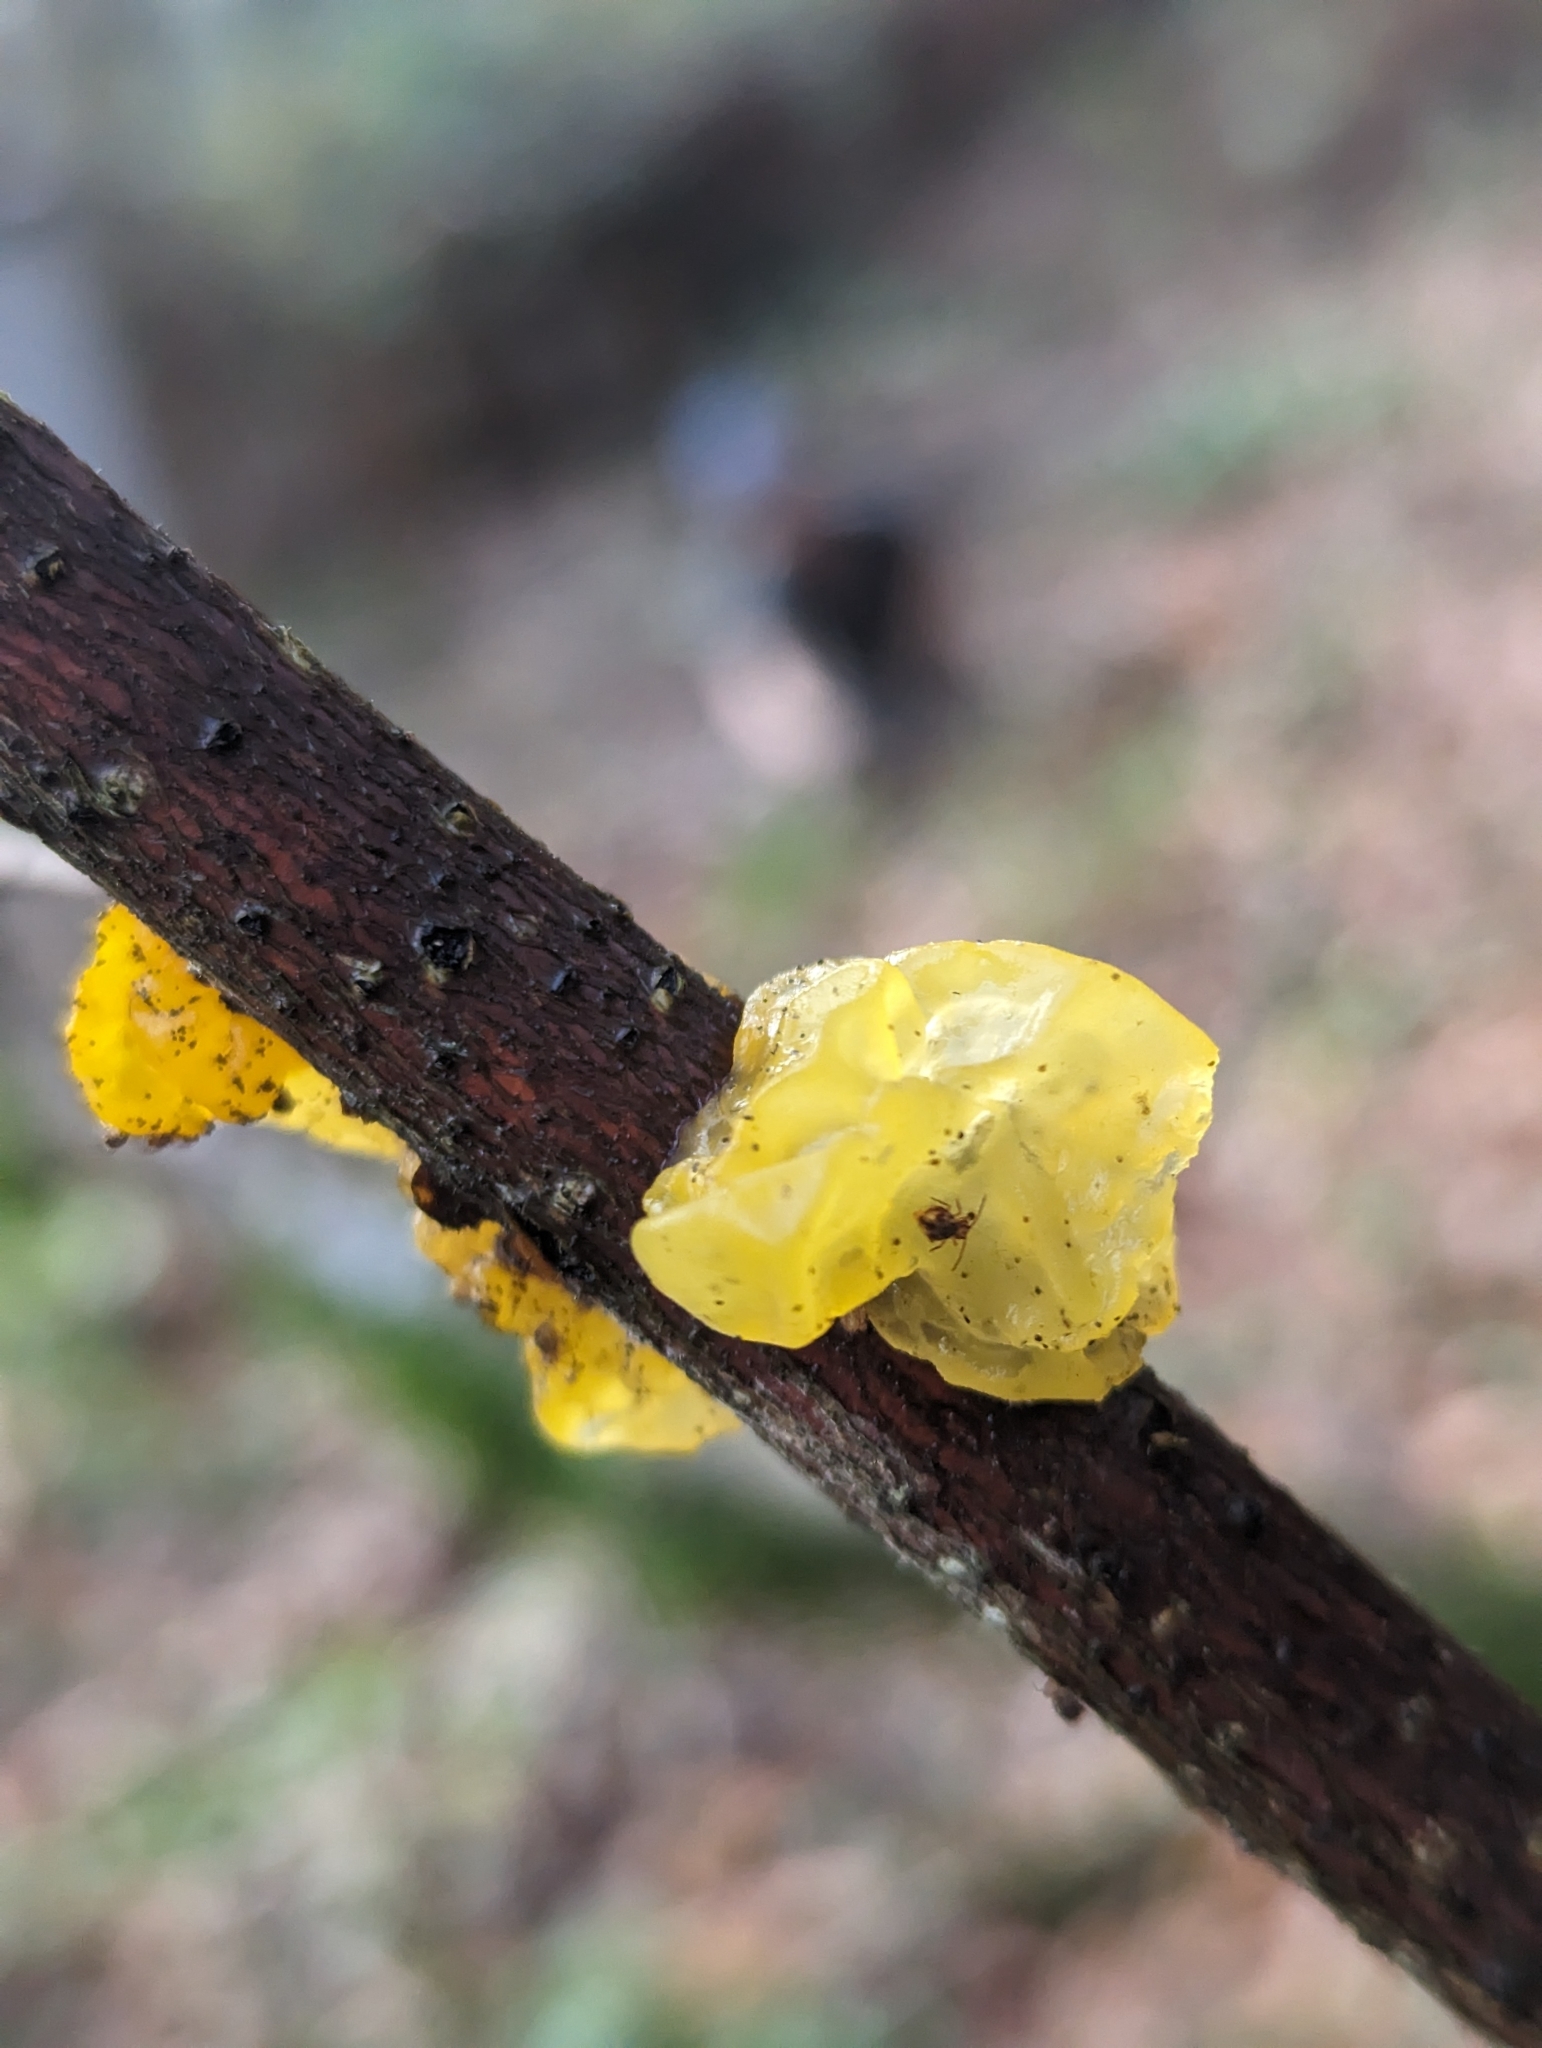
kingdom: Fungi
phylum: Basidiomycota
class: Tremellomycetes
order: Tremellales
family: Tremellaceae
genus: Tremella
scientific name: Tremella mesenterica
